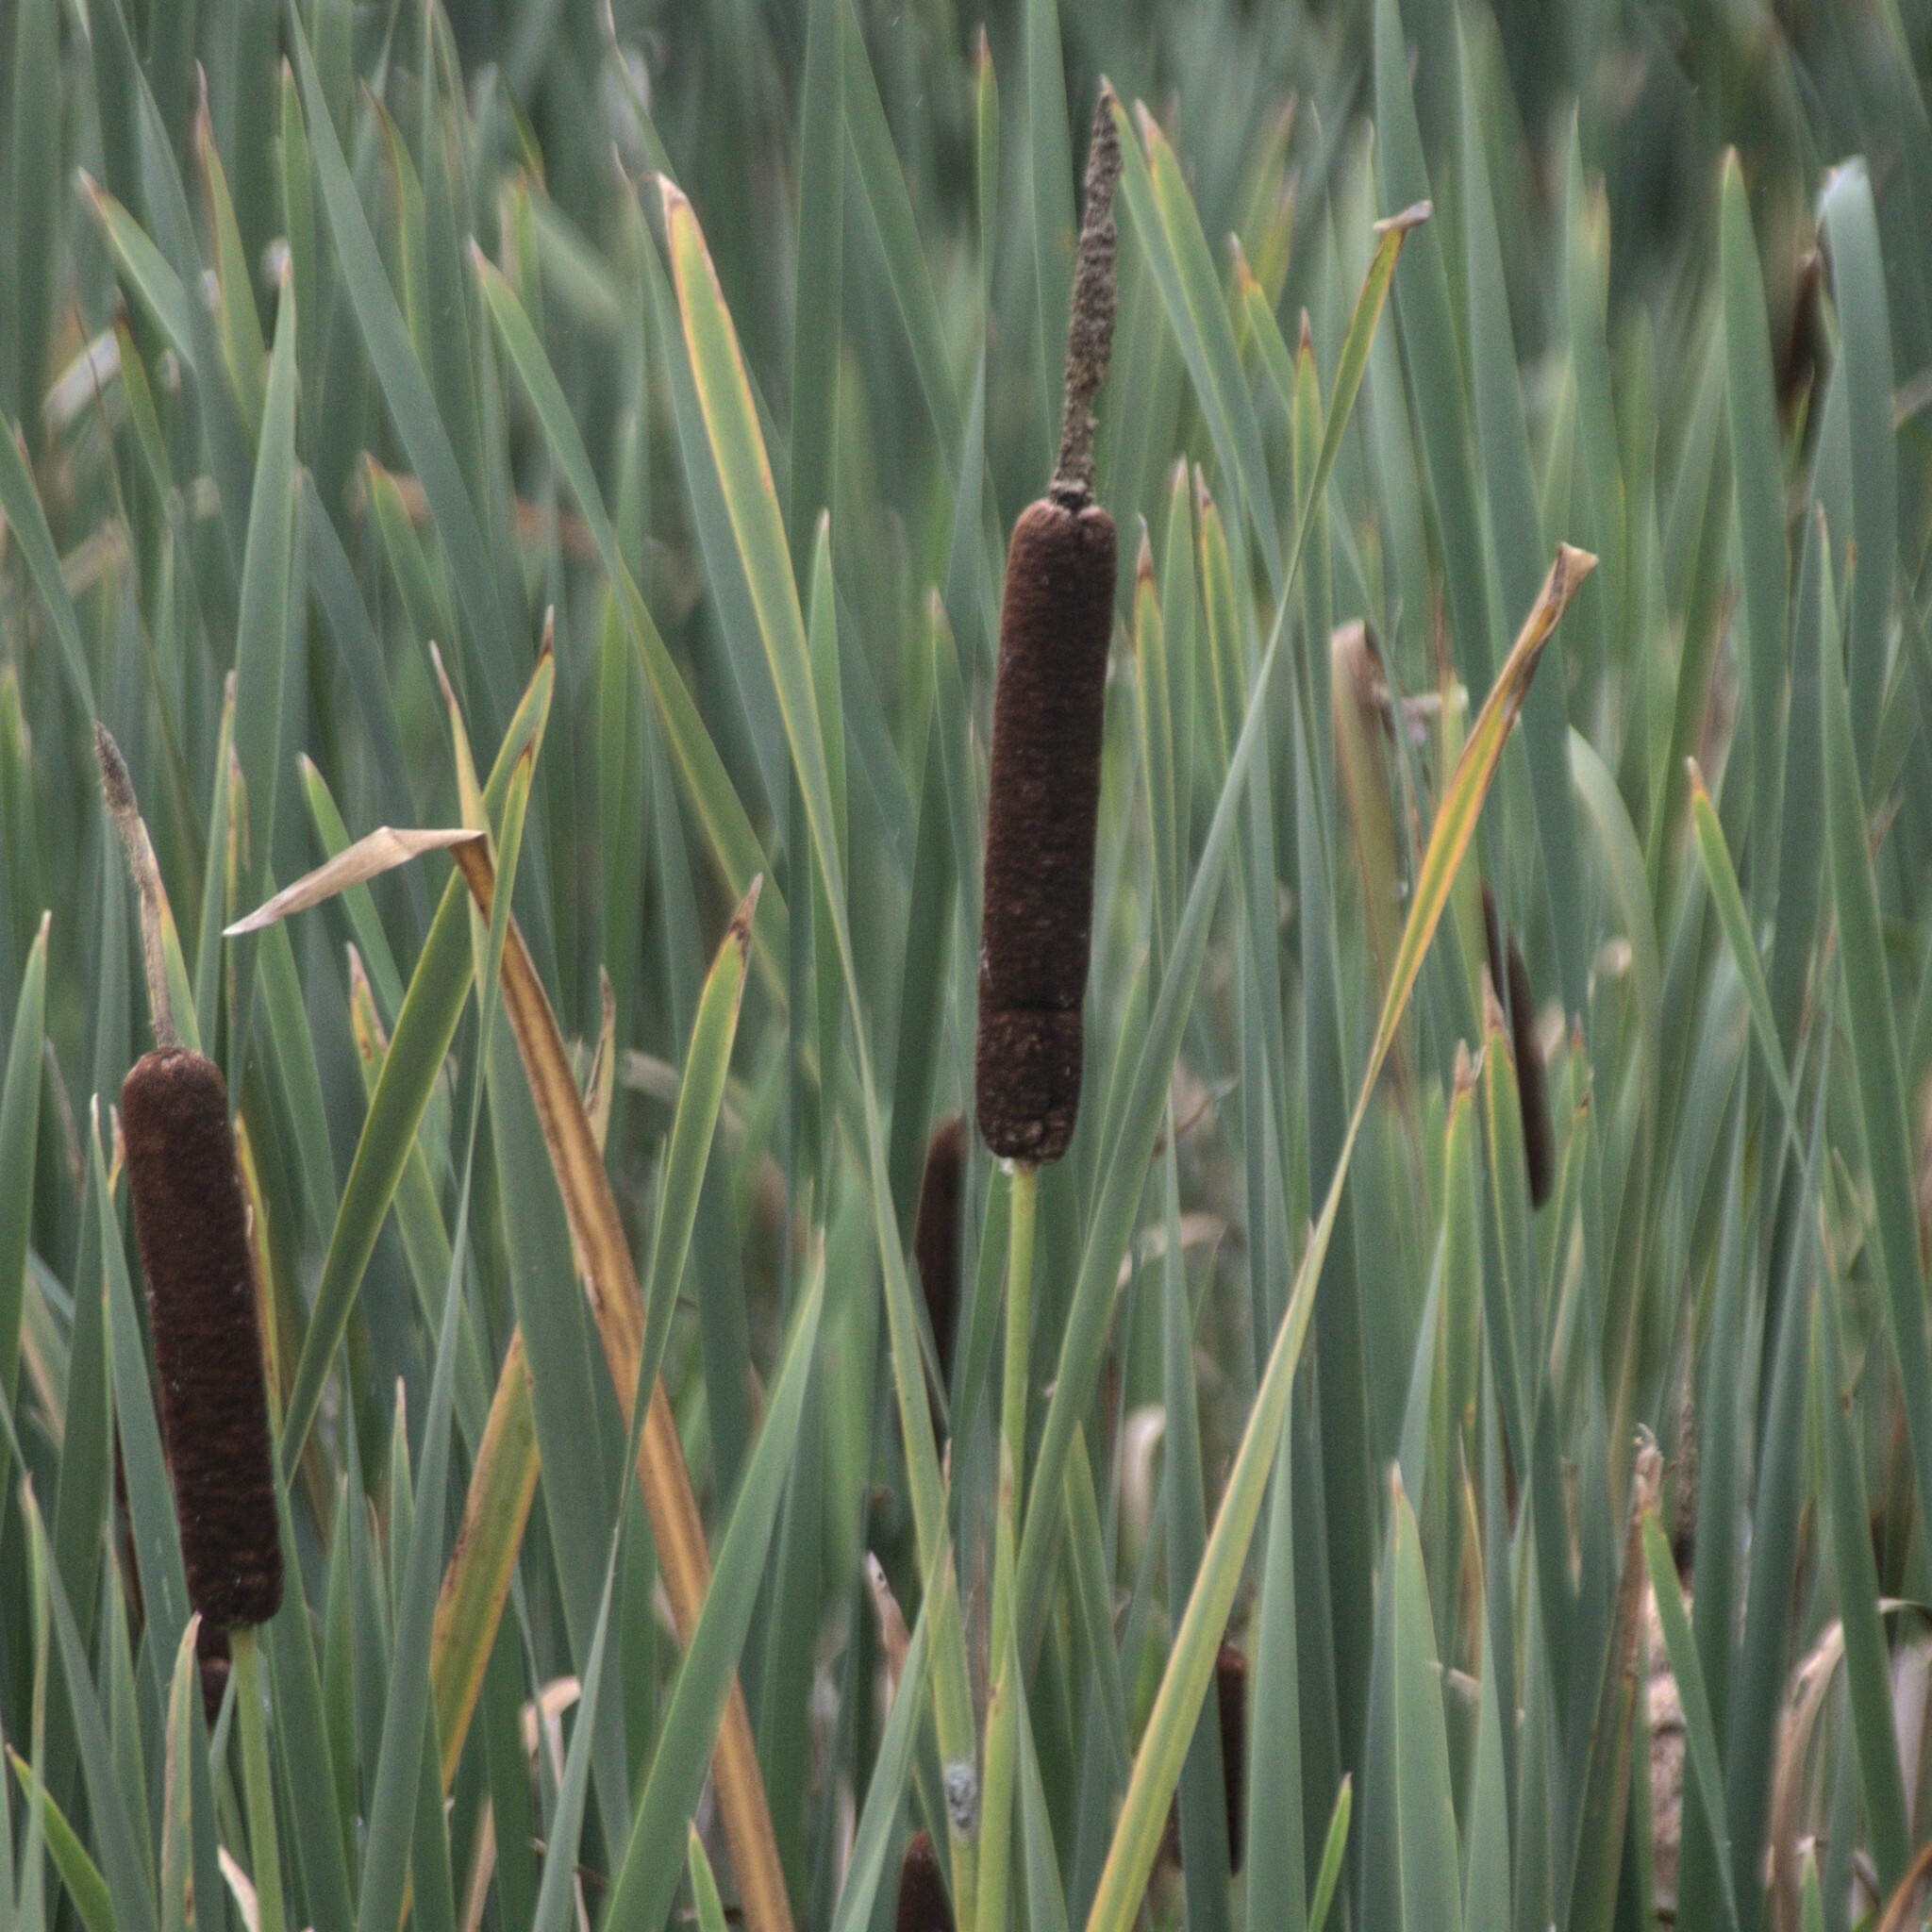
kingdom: Plantae
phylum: Tracheophyta
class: Liliopsida
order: Poales
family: Typhaceae
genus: Typha
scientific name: Typha latifolia
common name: Broadleaf cattail
